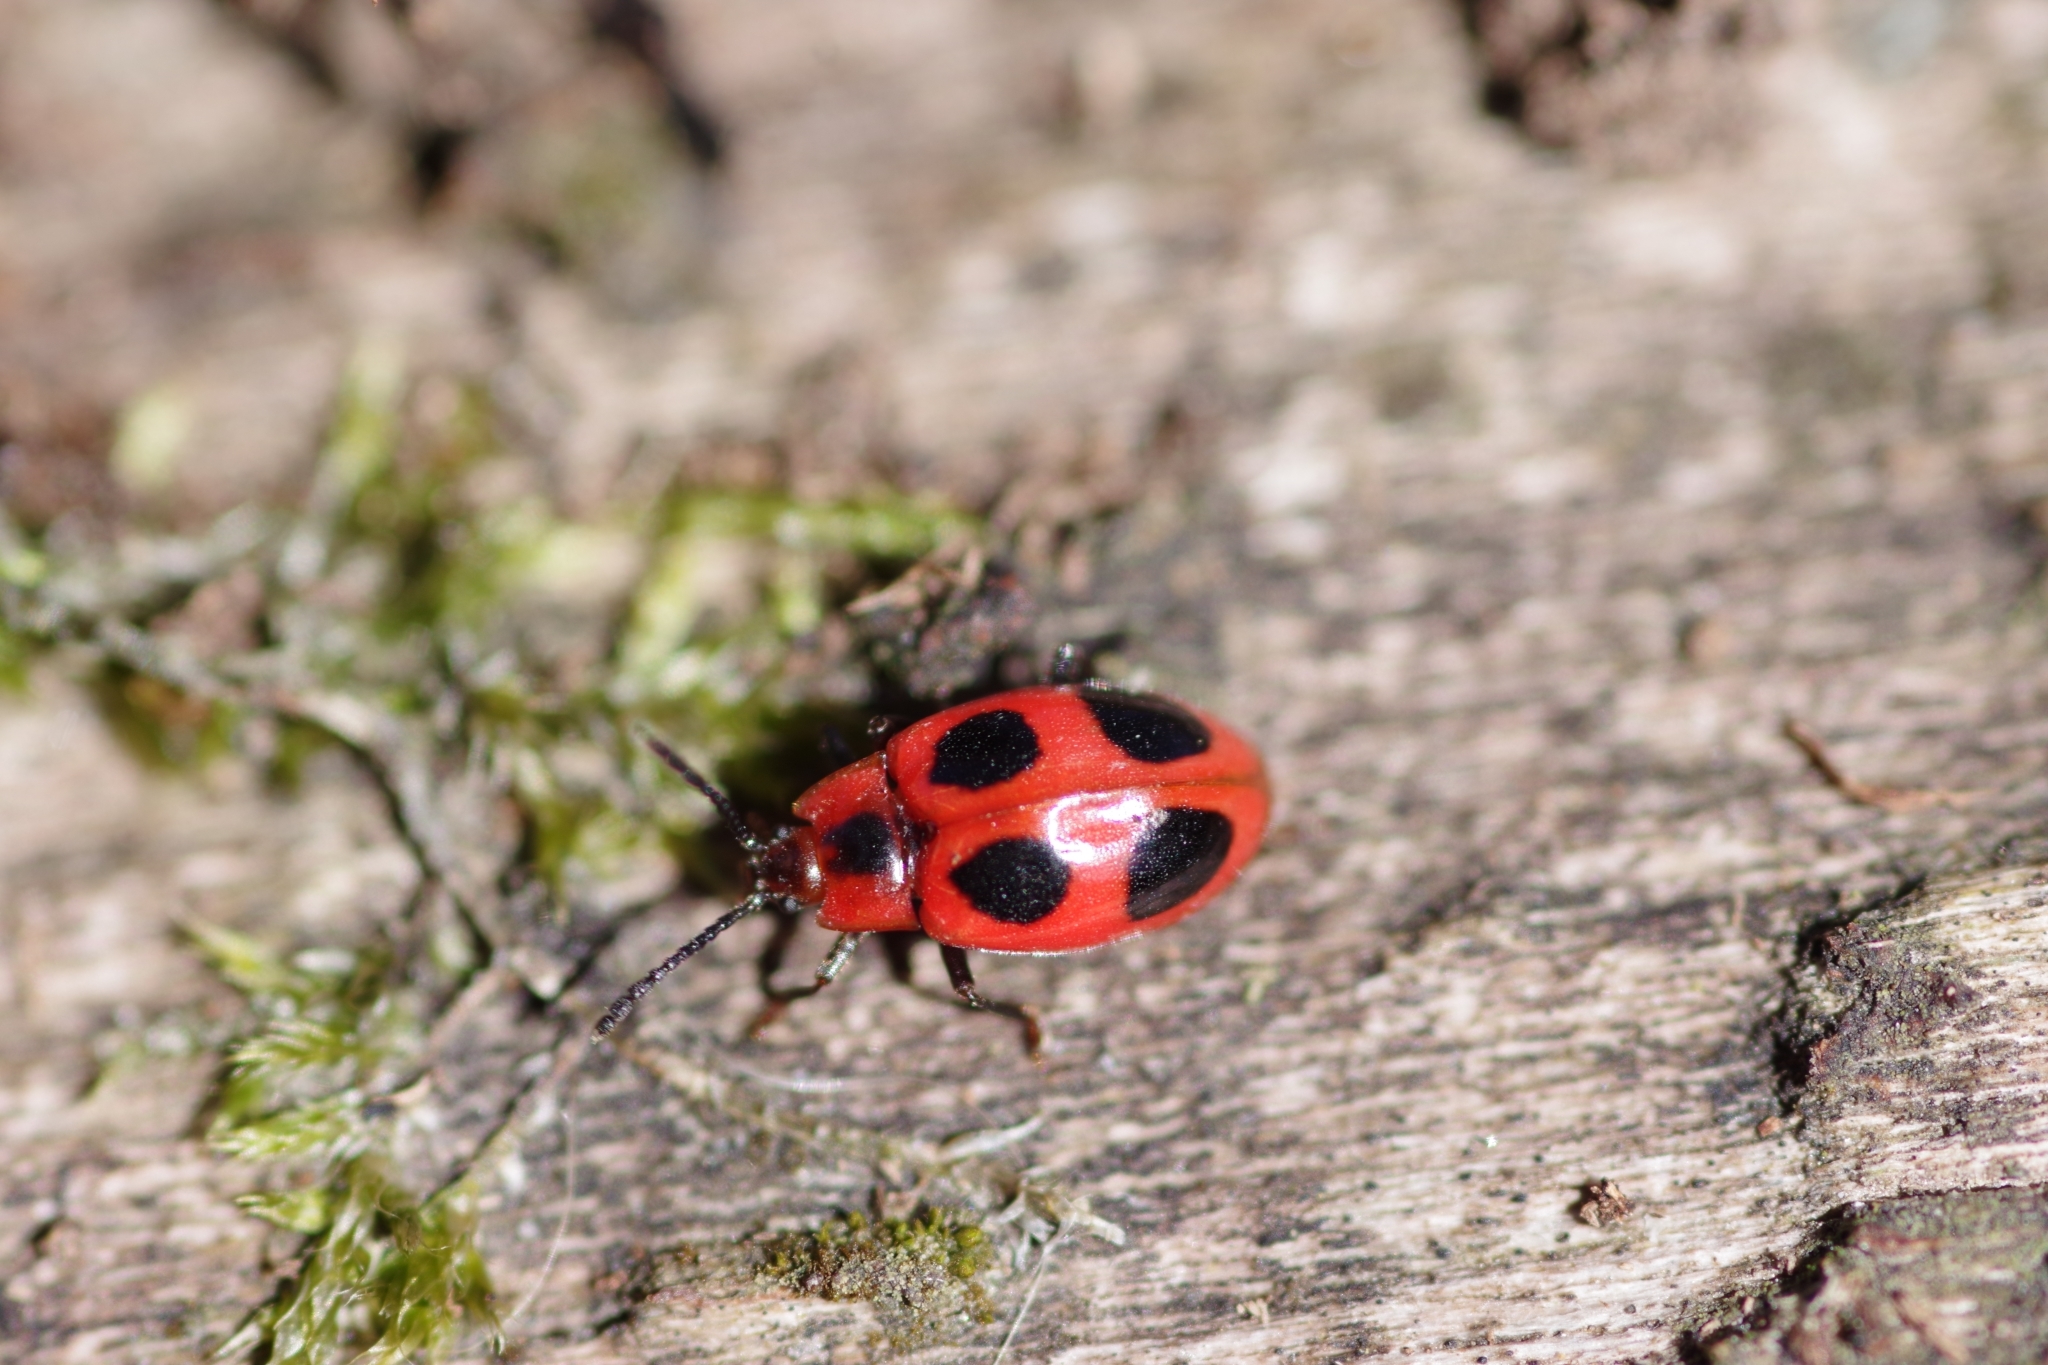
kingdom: Animalia
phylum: Arthropoda
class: Insecta
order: Coleoptera
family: Endomychidae
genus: Endomychus
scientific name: Endomychus coccineus
